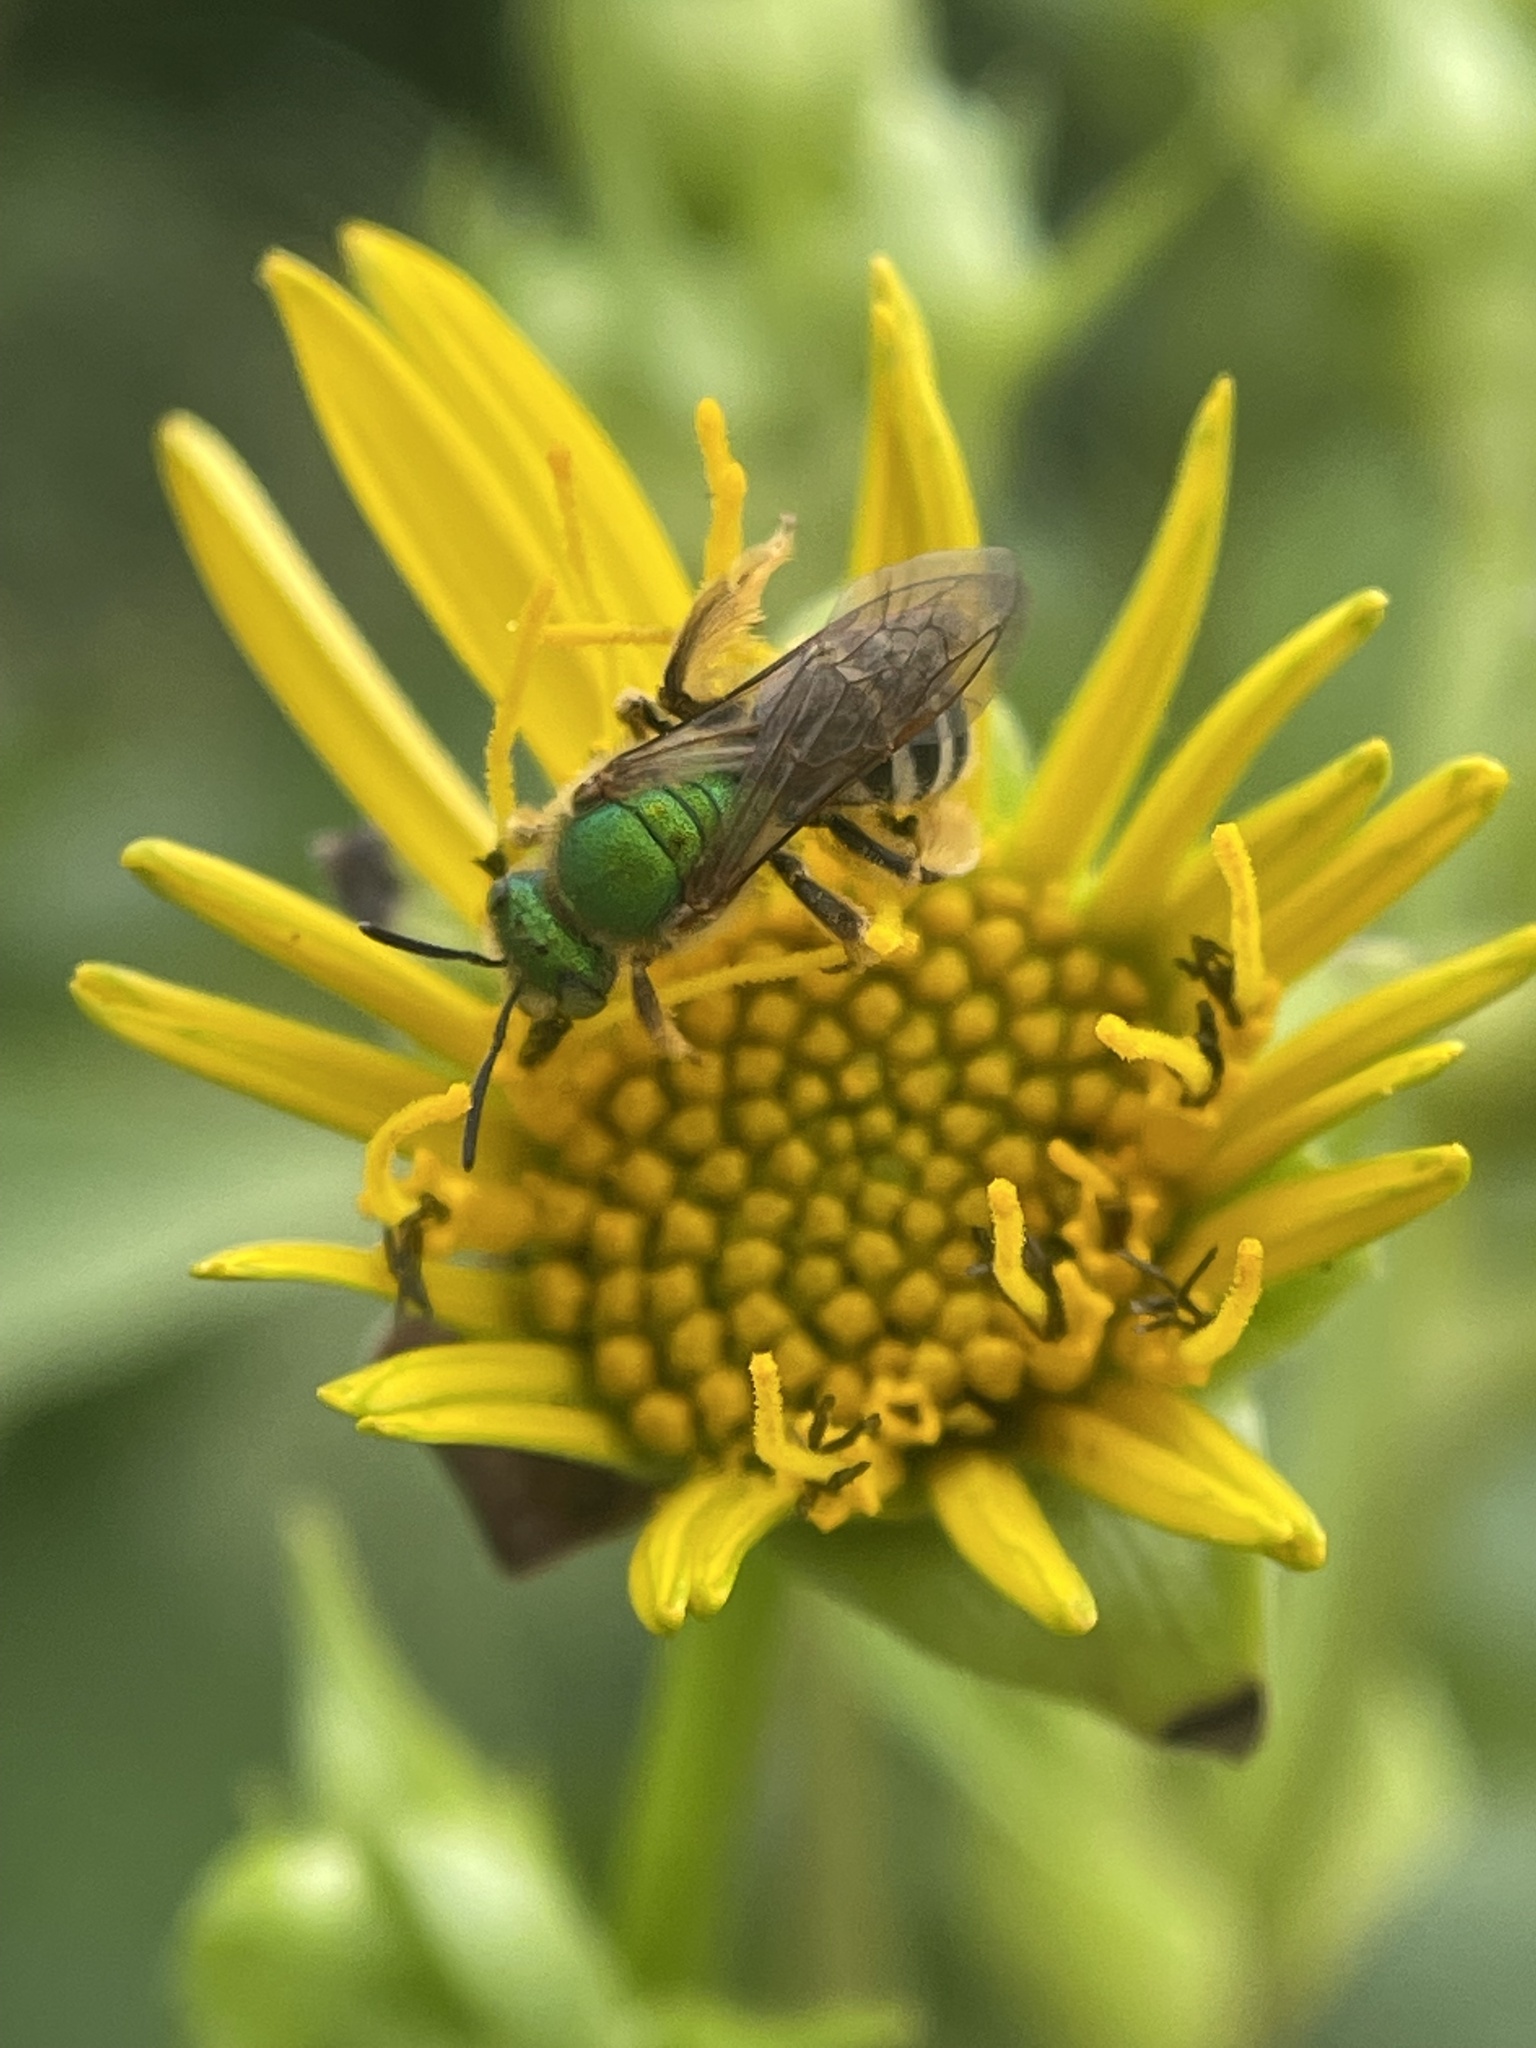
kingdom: Animalia
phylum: Arthropoda
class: Insecta
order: Hymenoptera
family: Halictidae
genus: Agapostemon
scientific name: Agapostemon virescens
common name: Bicolored striped sweat bee
